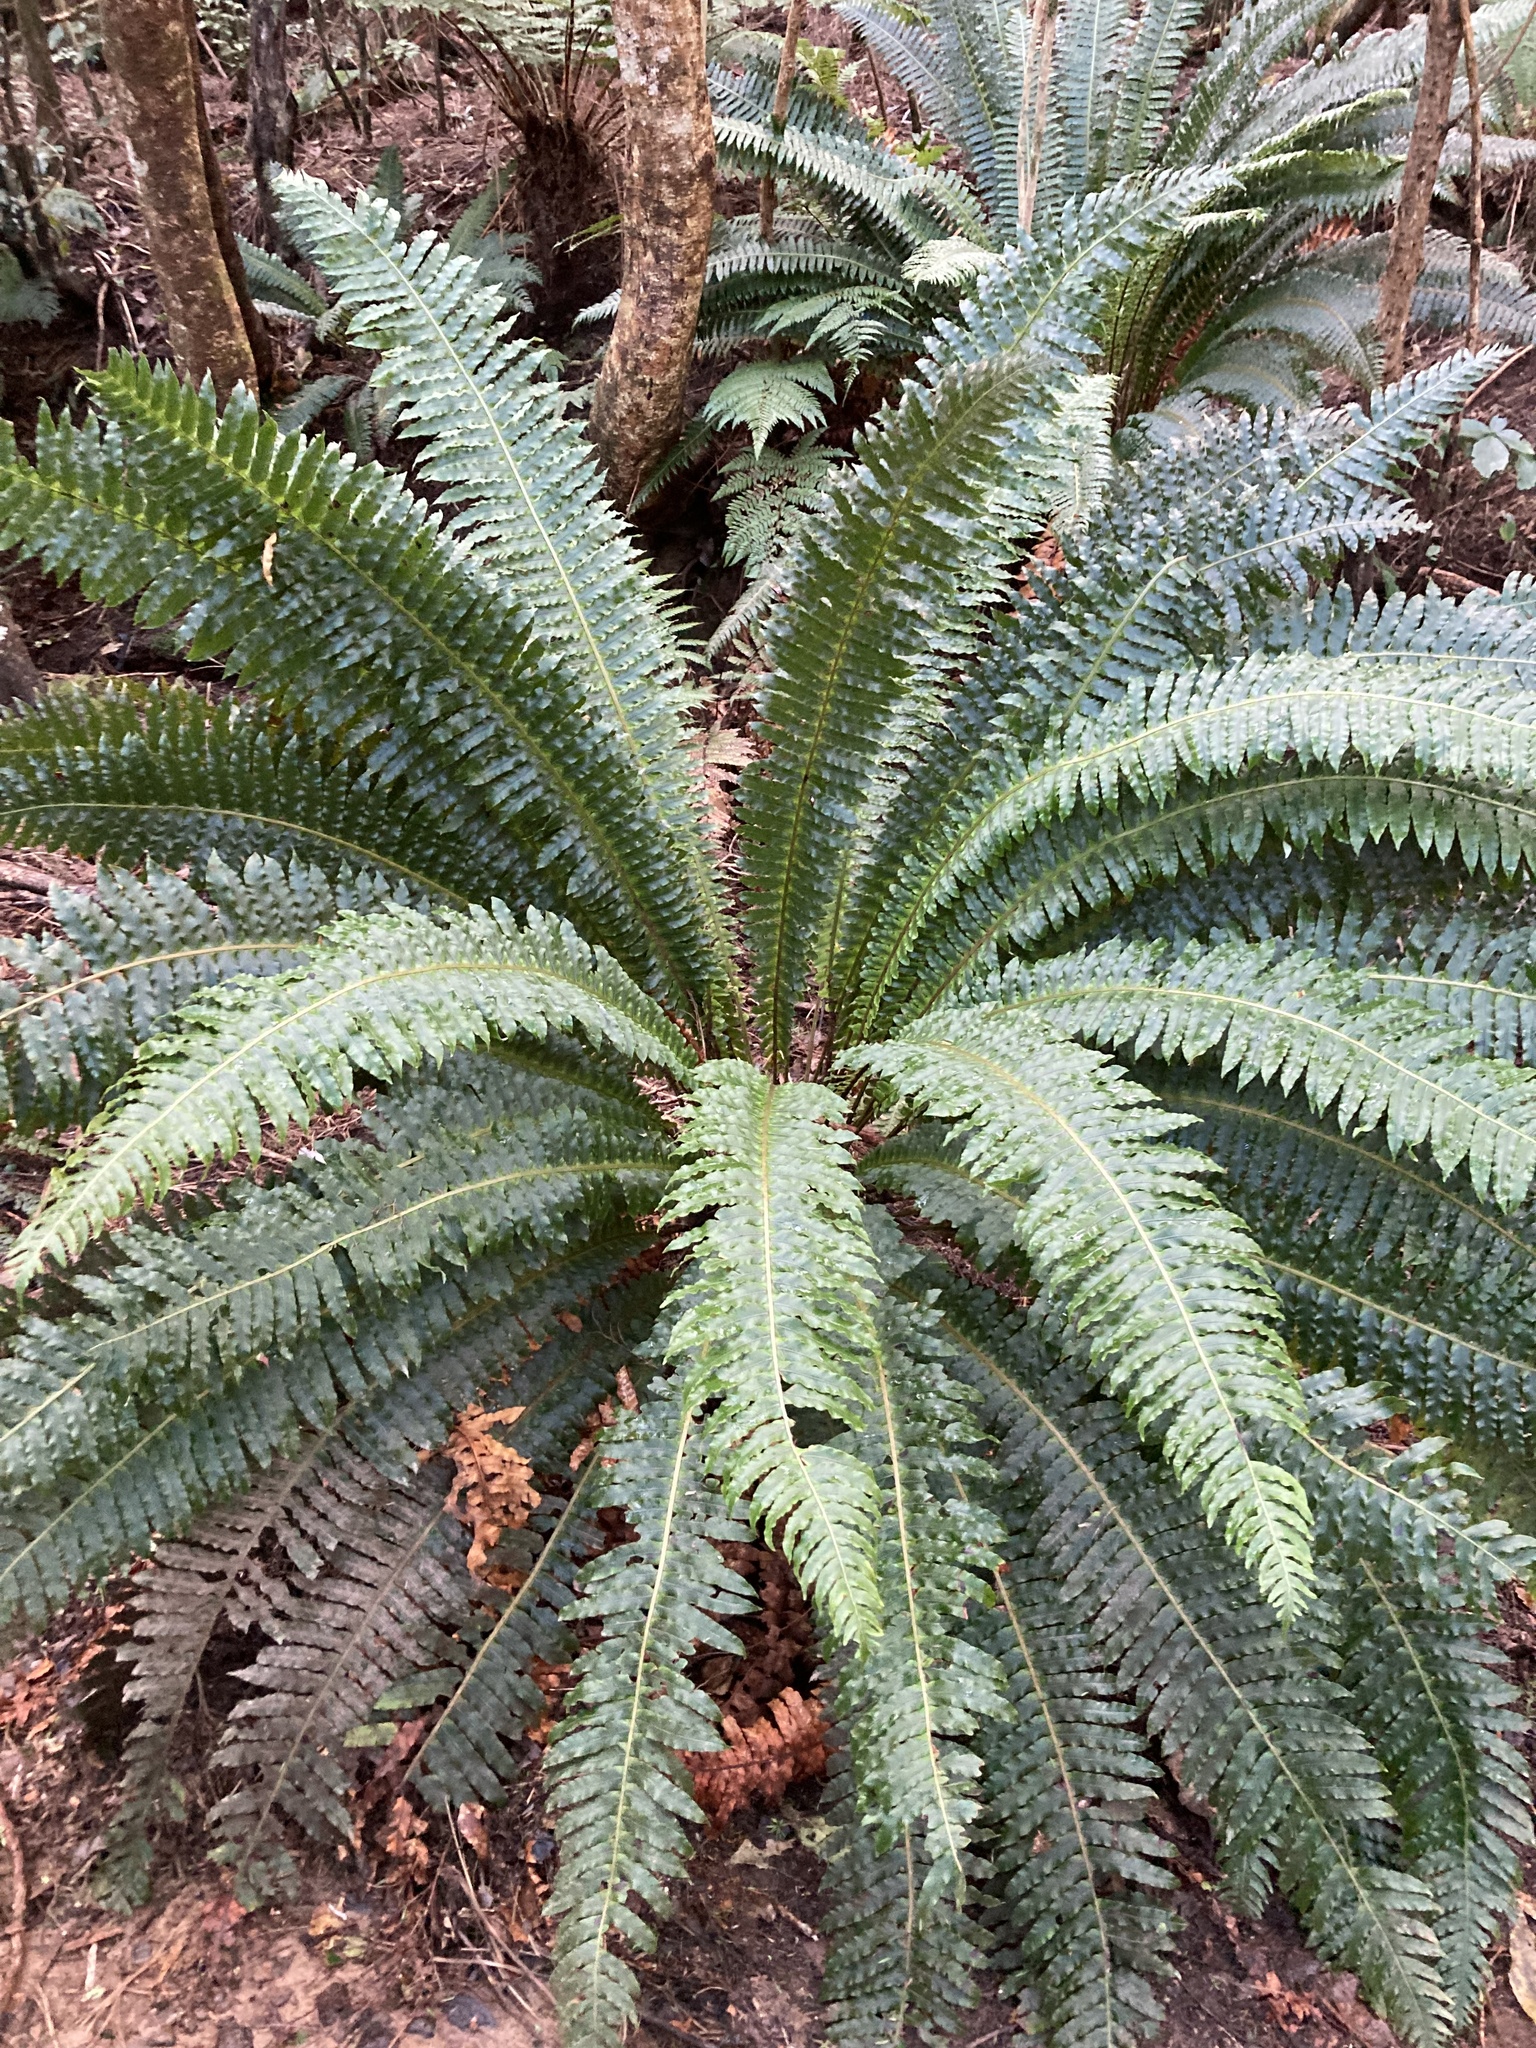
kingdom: Plantae
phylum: Tracheophyta
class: Polypodiopsida
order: Polypodiales
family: Blechnaceae
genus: Lomaria
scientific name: Lomaria discolor
